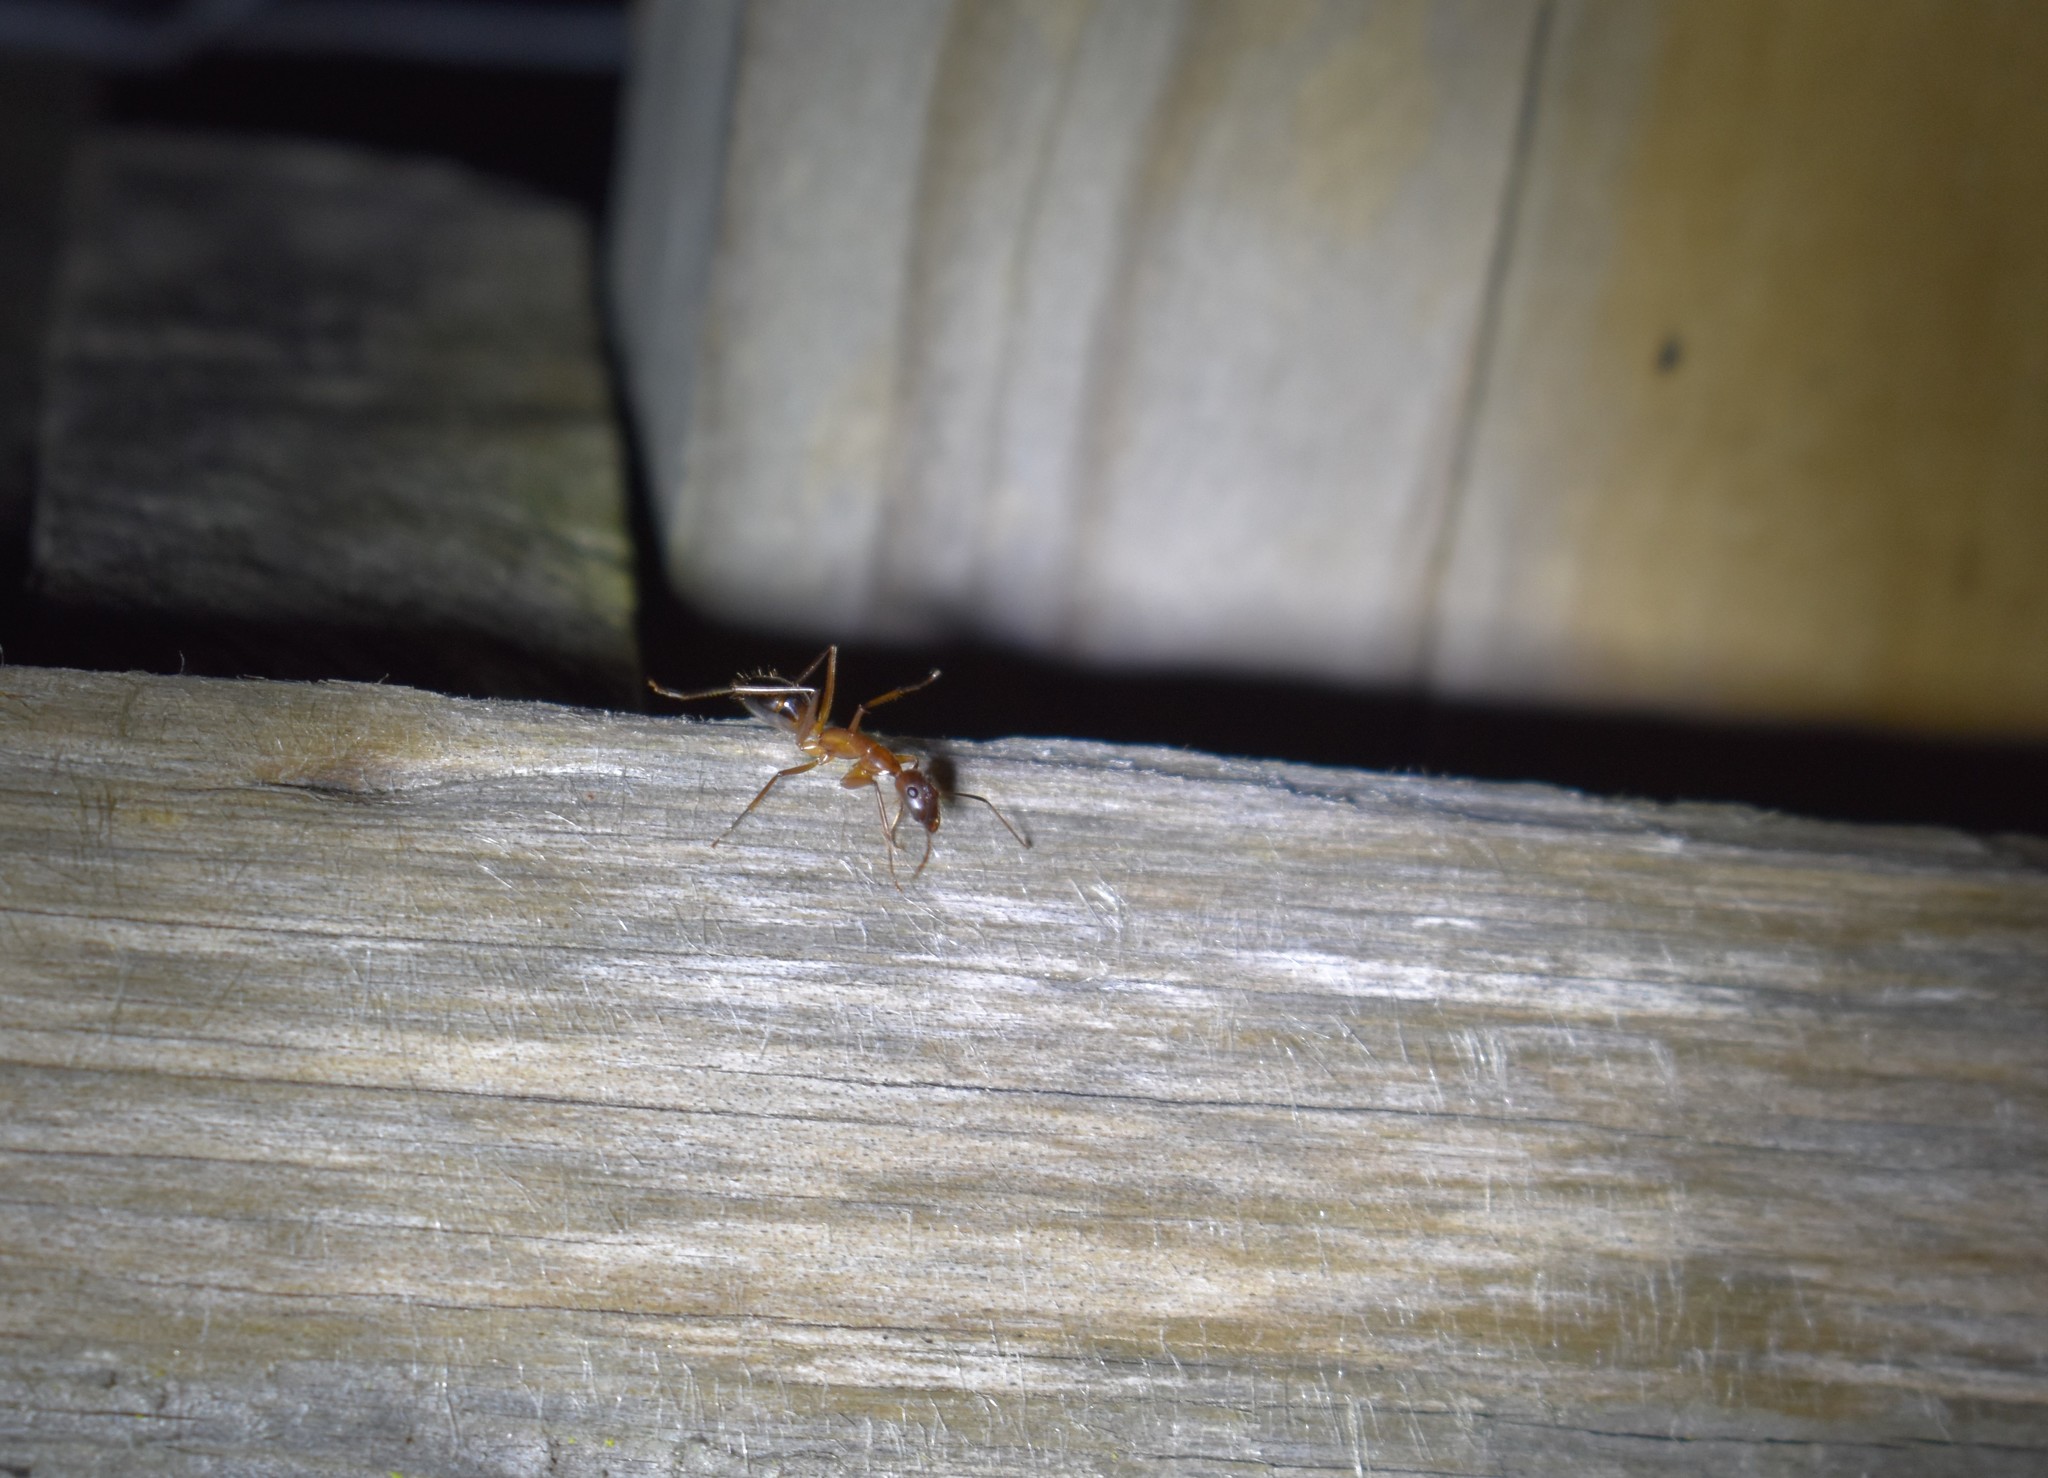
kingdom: Animalia
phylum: Arthropoda
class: Insecta
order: Hymenoptera
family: Formicidae
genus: Camponotus
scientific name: Camponotus maculatus
